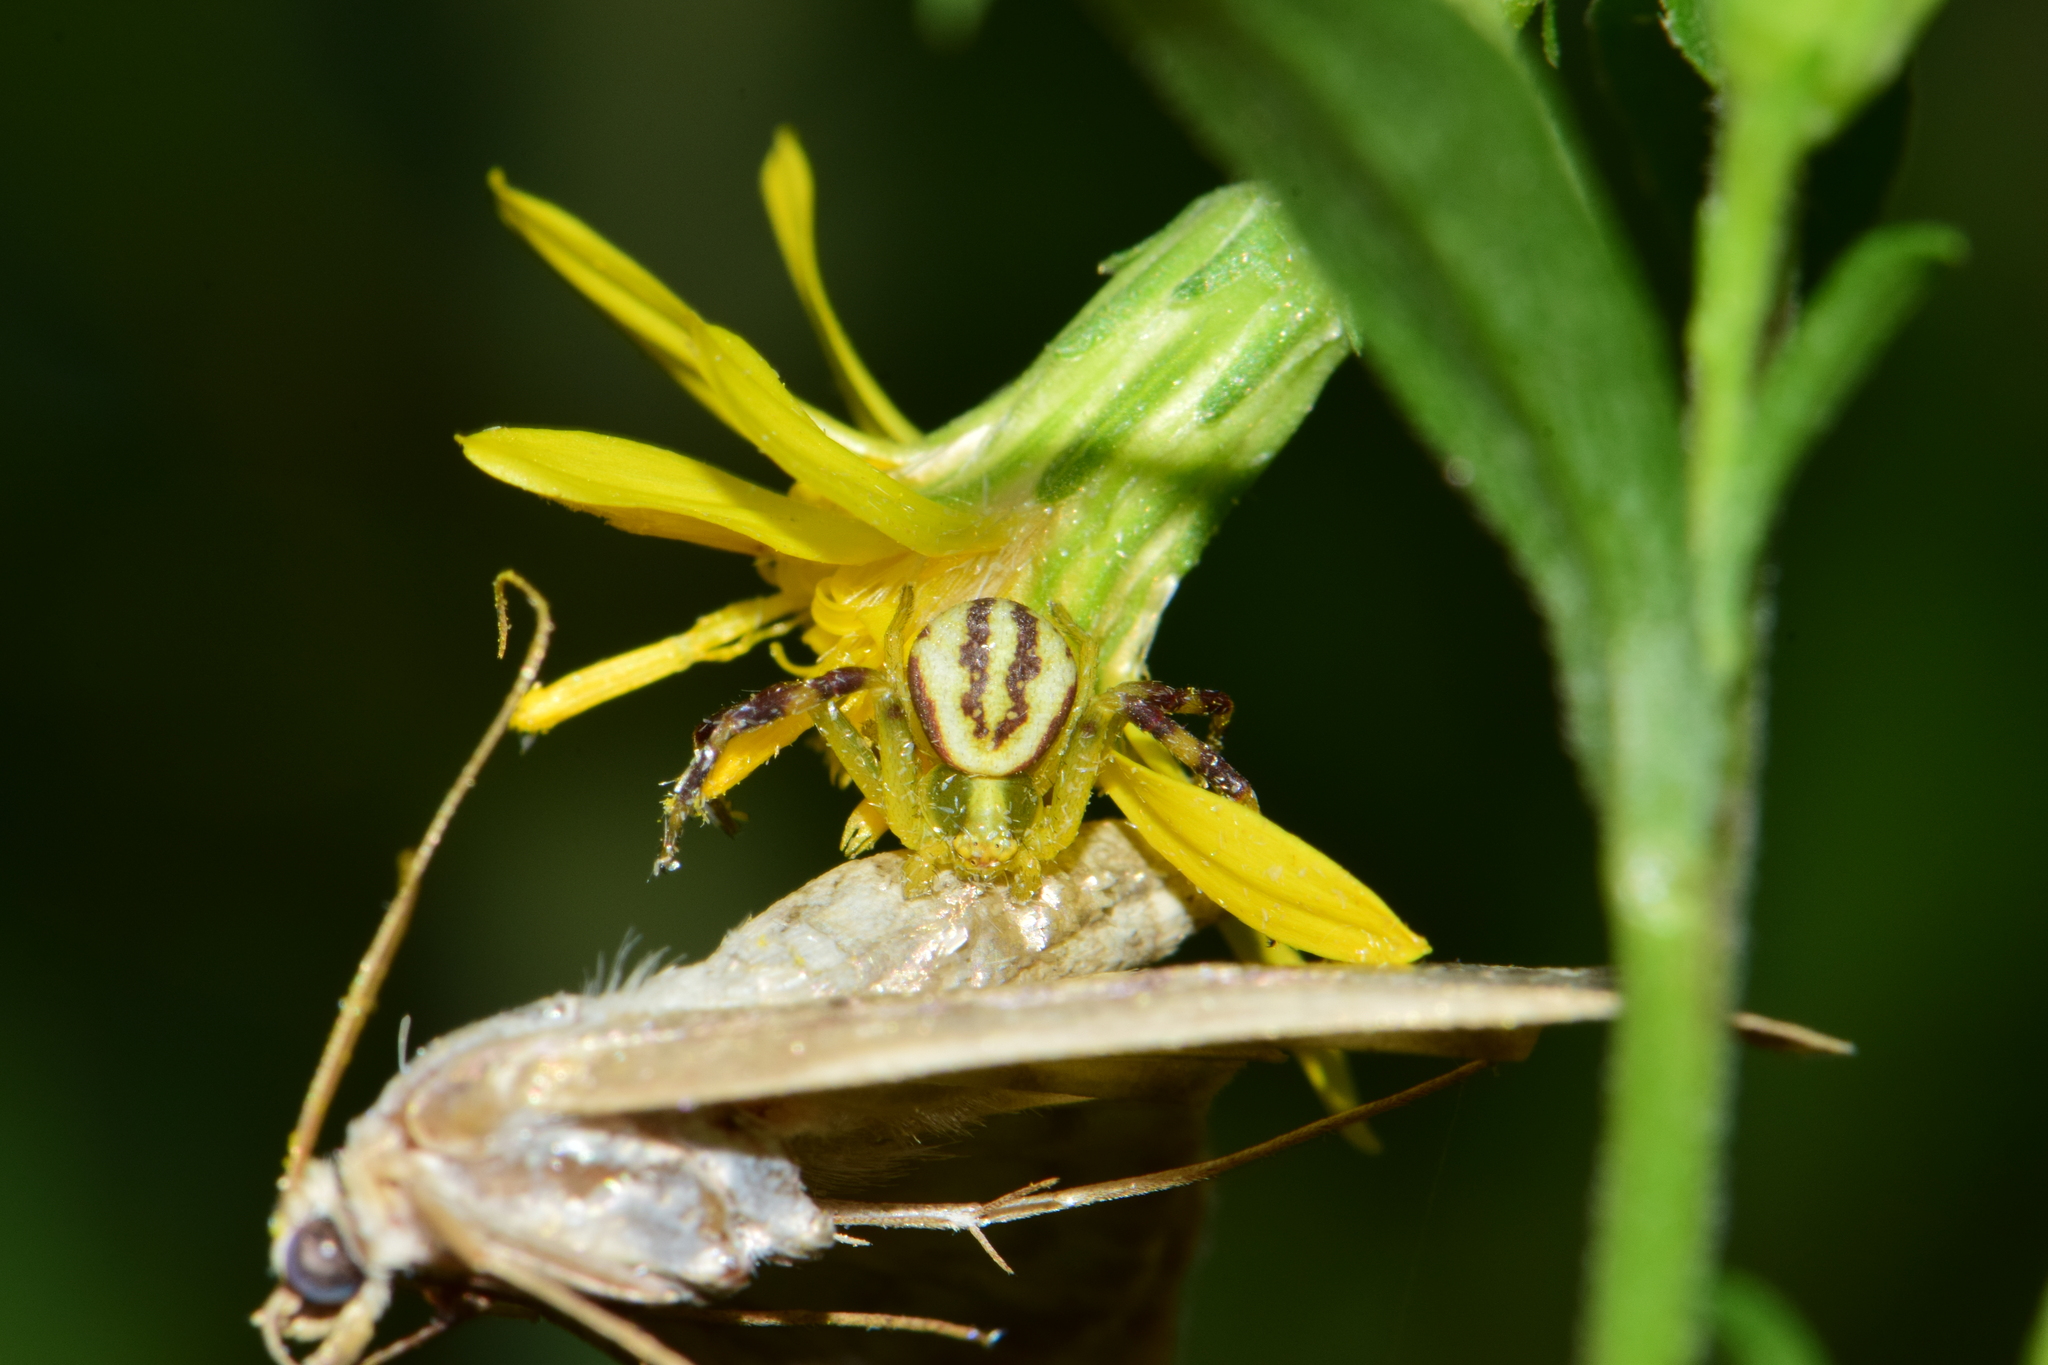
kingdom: Animalia
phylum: Arthropoda
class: Arachnida
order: Araneae
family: Thomisidae
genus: Misumena
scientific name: Misumena vatia
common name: Goldenrod crab spider
